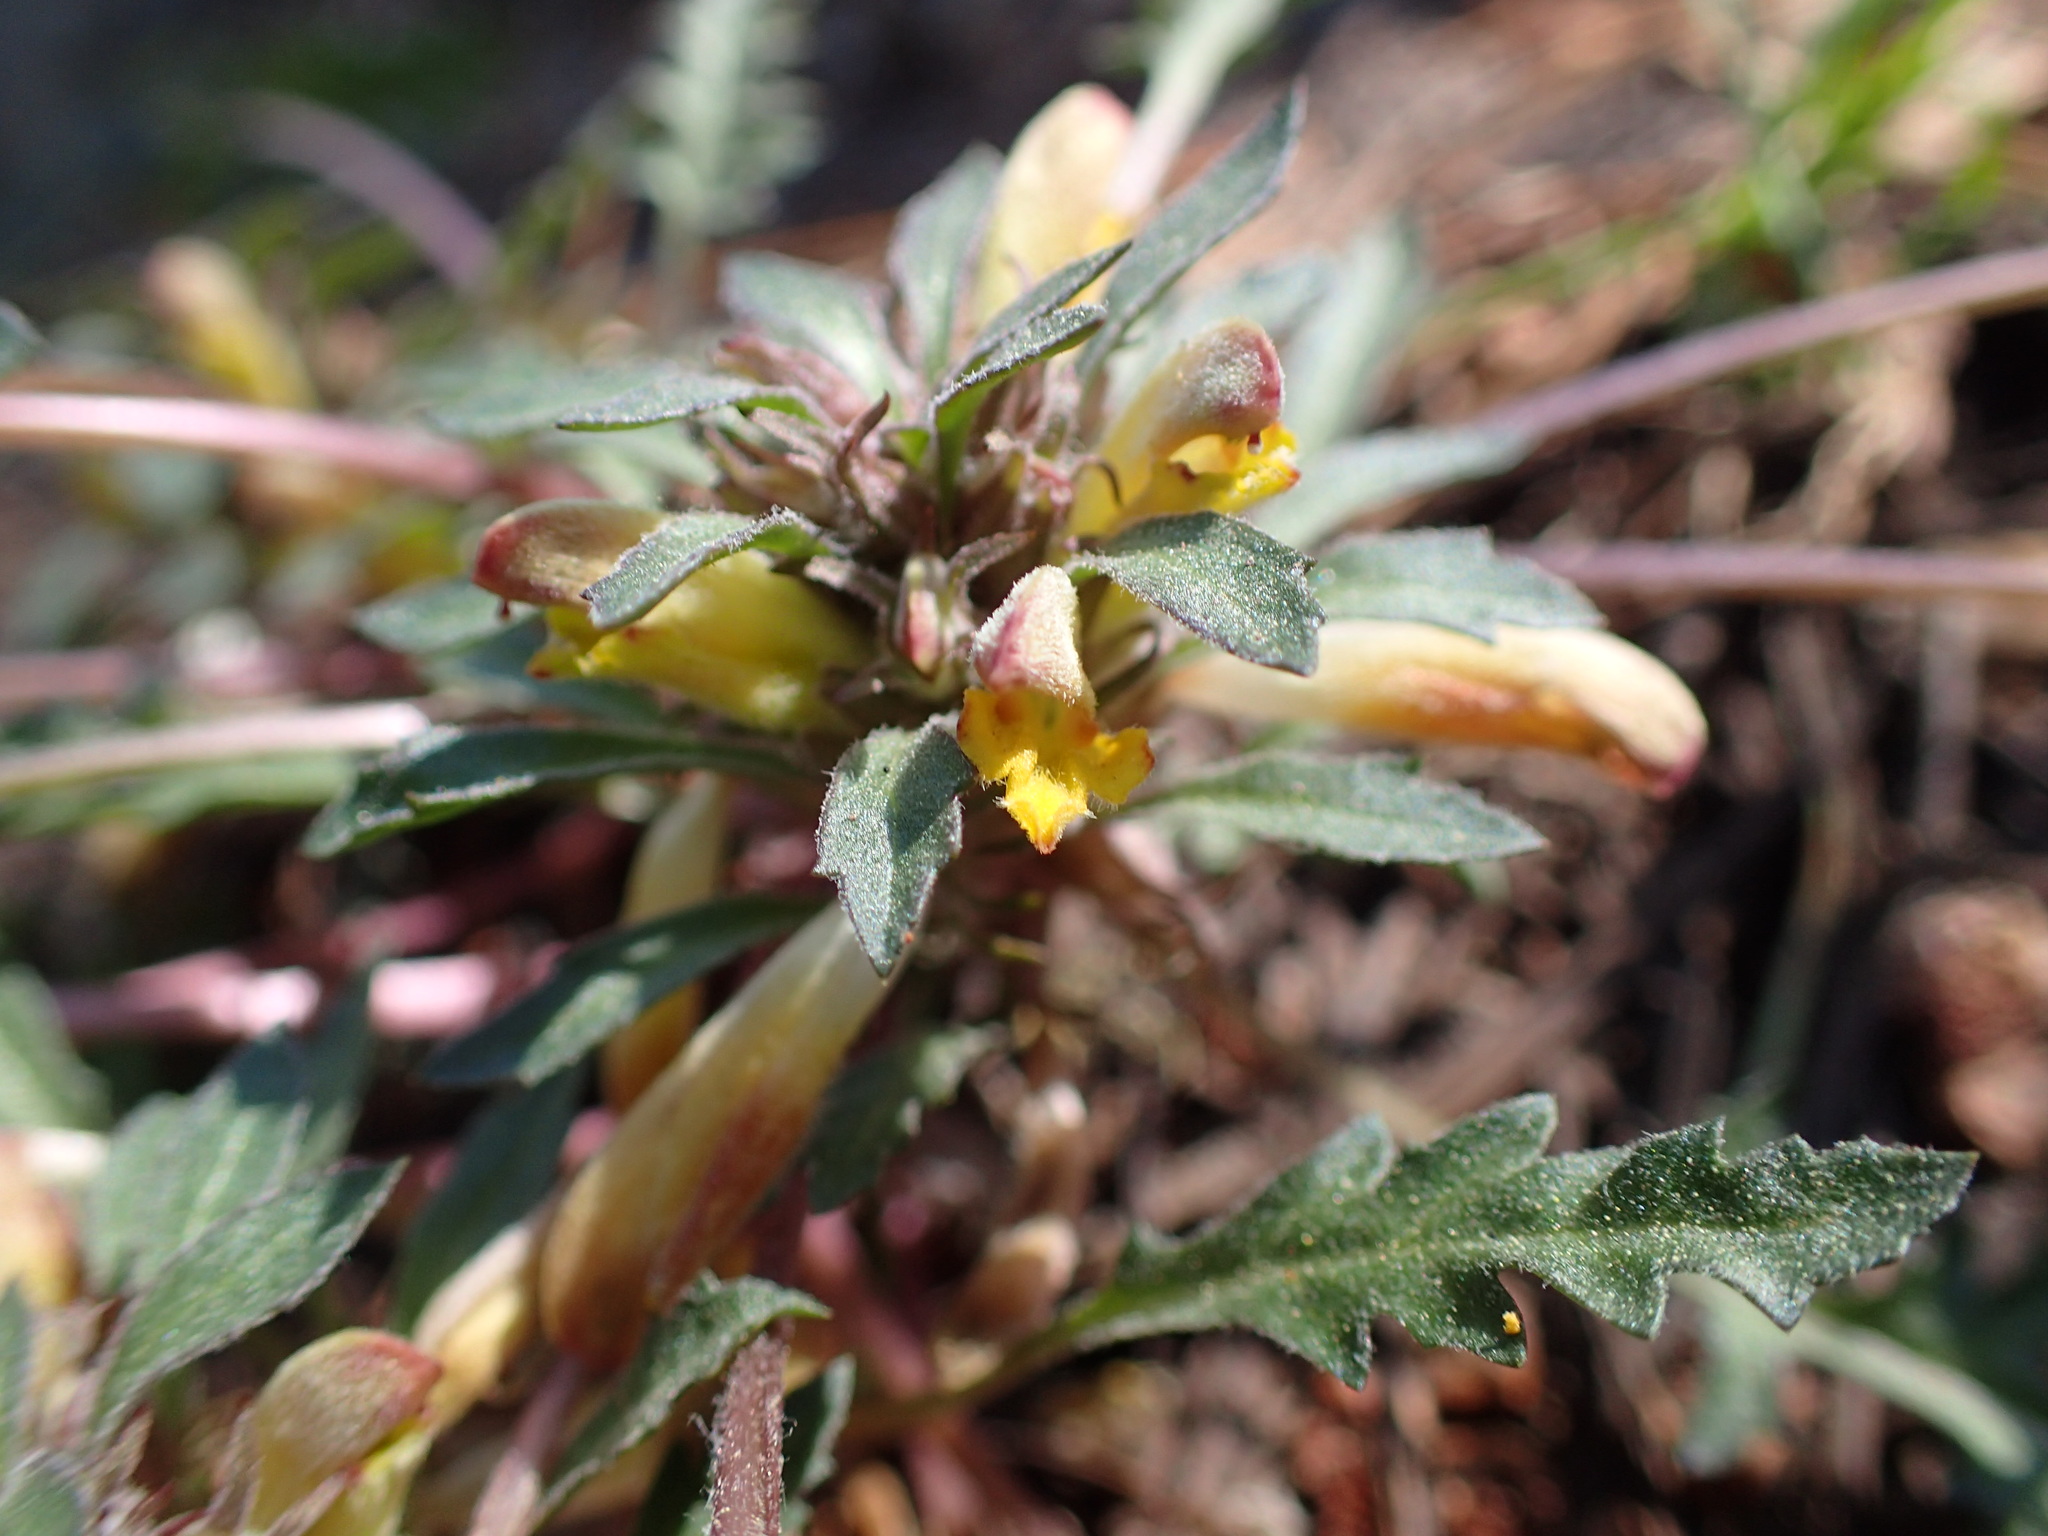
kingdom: Plantae
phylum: Tracheophyta
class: Magnoliopsida
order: Lamiales
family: Orobanchaceae
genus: Pedicularis
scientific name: Pedicularis semibarbata
